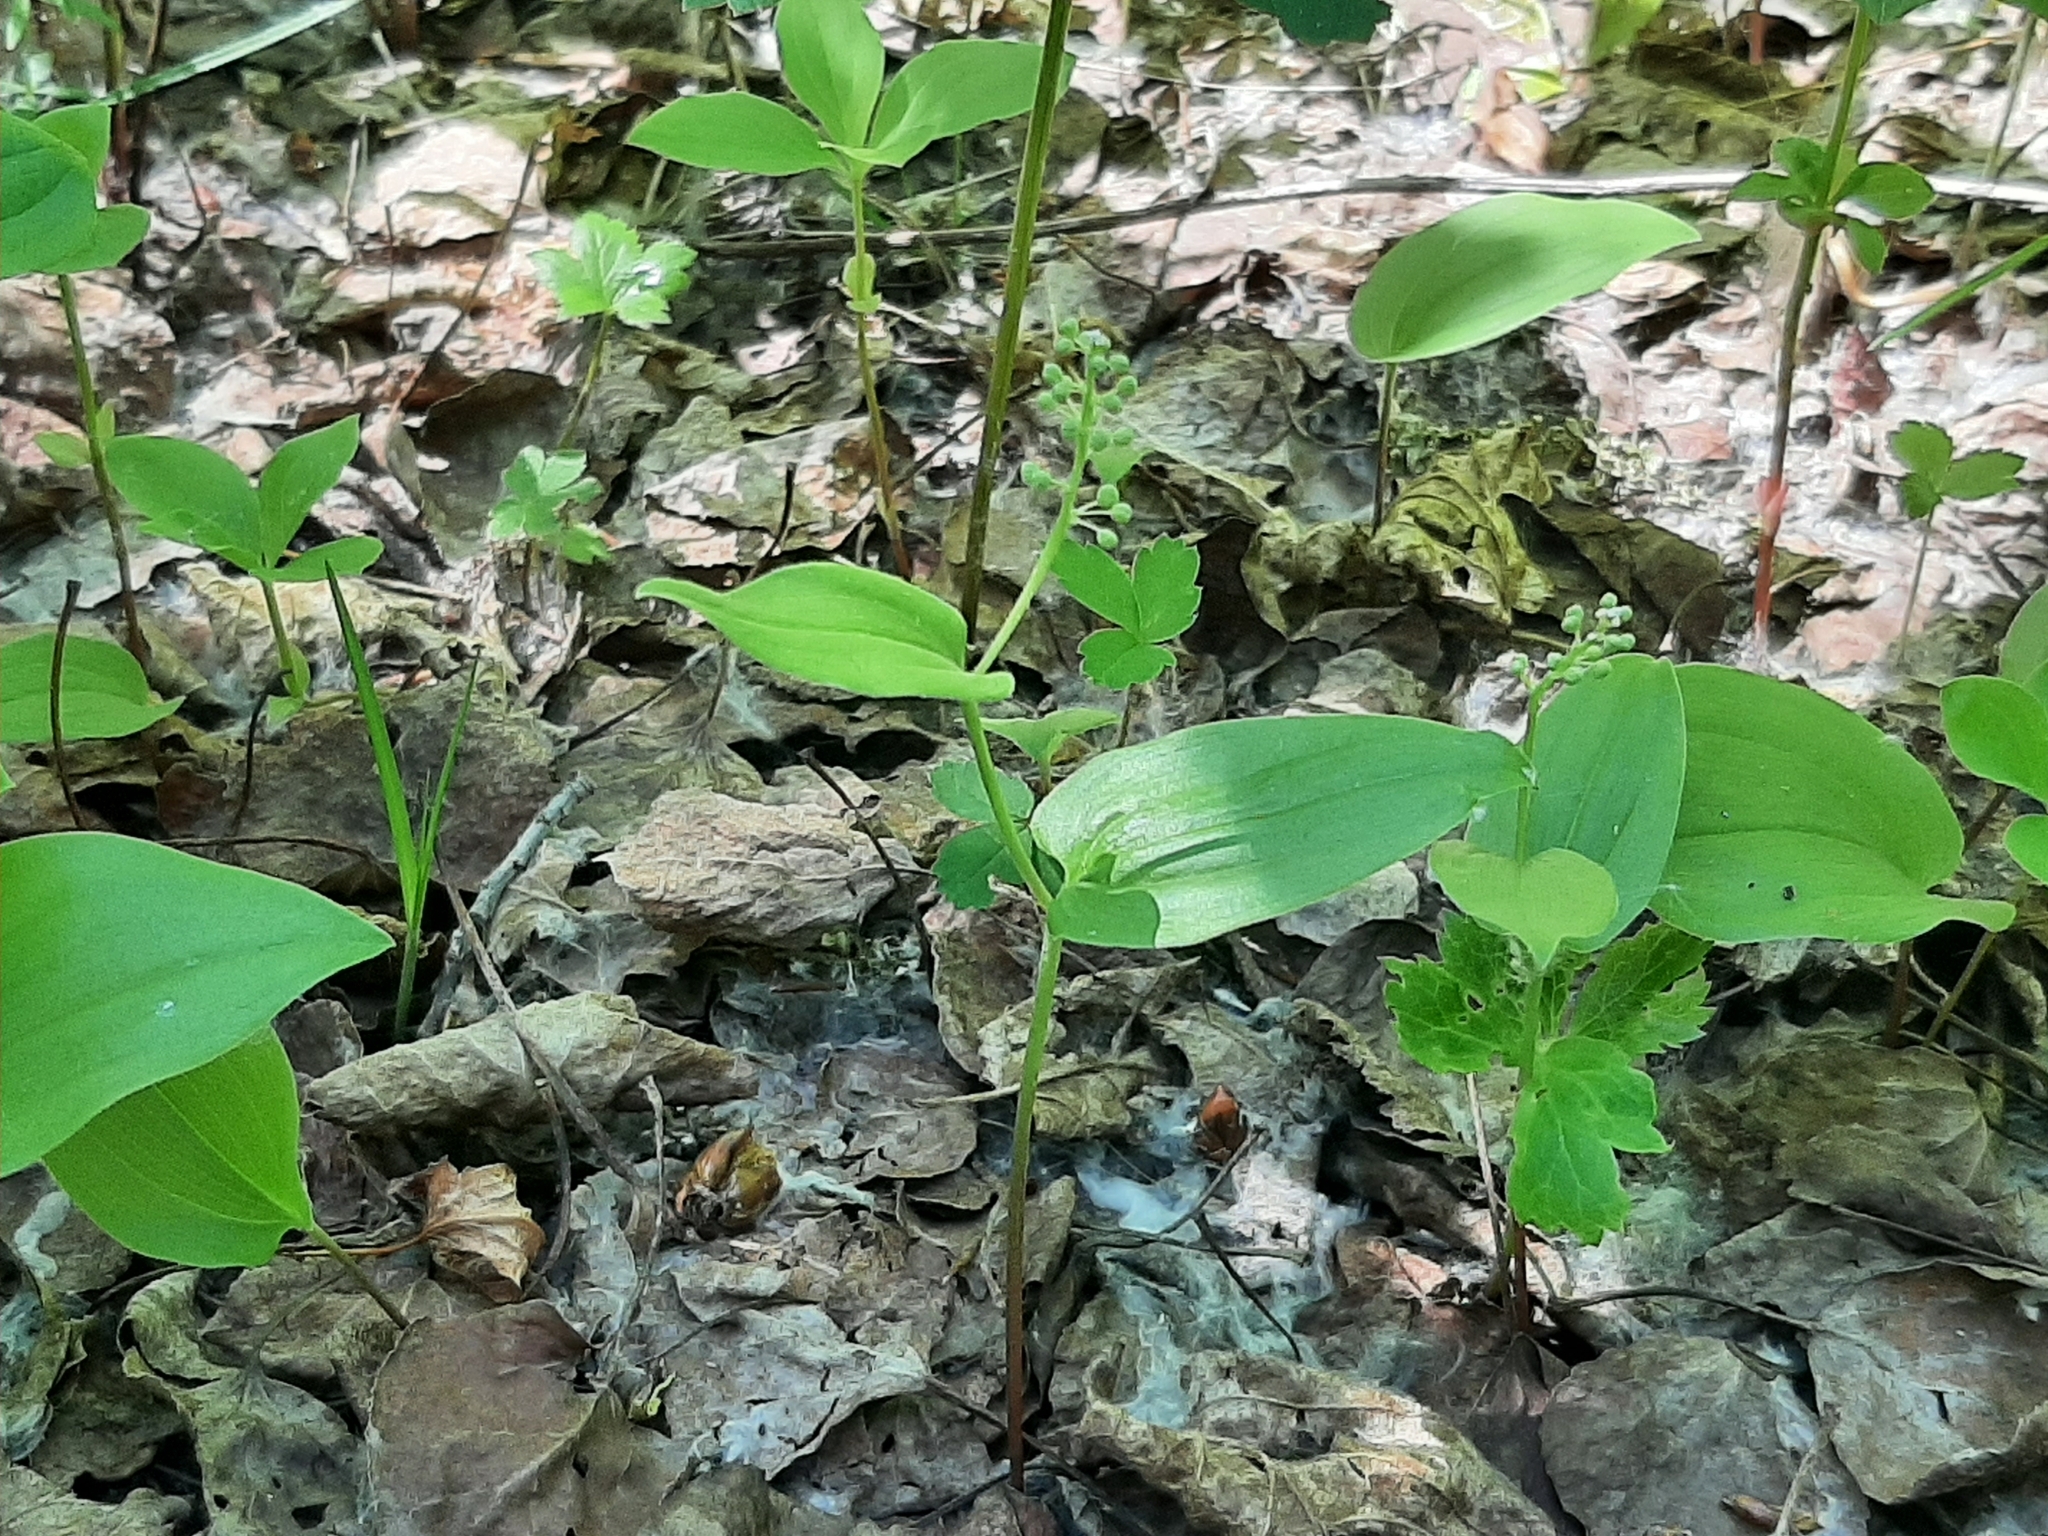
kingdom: Plantae
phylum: Tracheophyta
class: Liliopsida
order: Asparagales
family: Asparagaceae
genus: Maianthemum
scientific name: Maianthemum canadense
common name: False lily-of-the-valley
